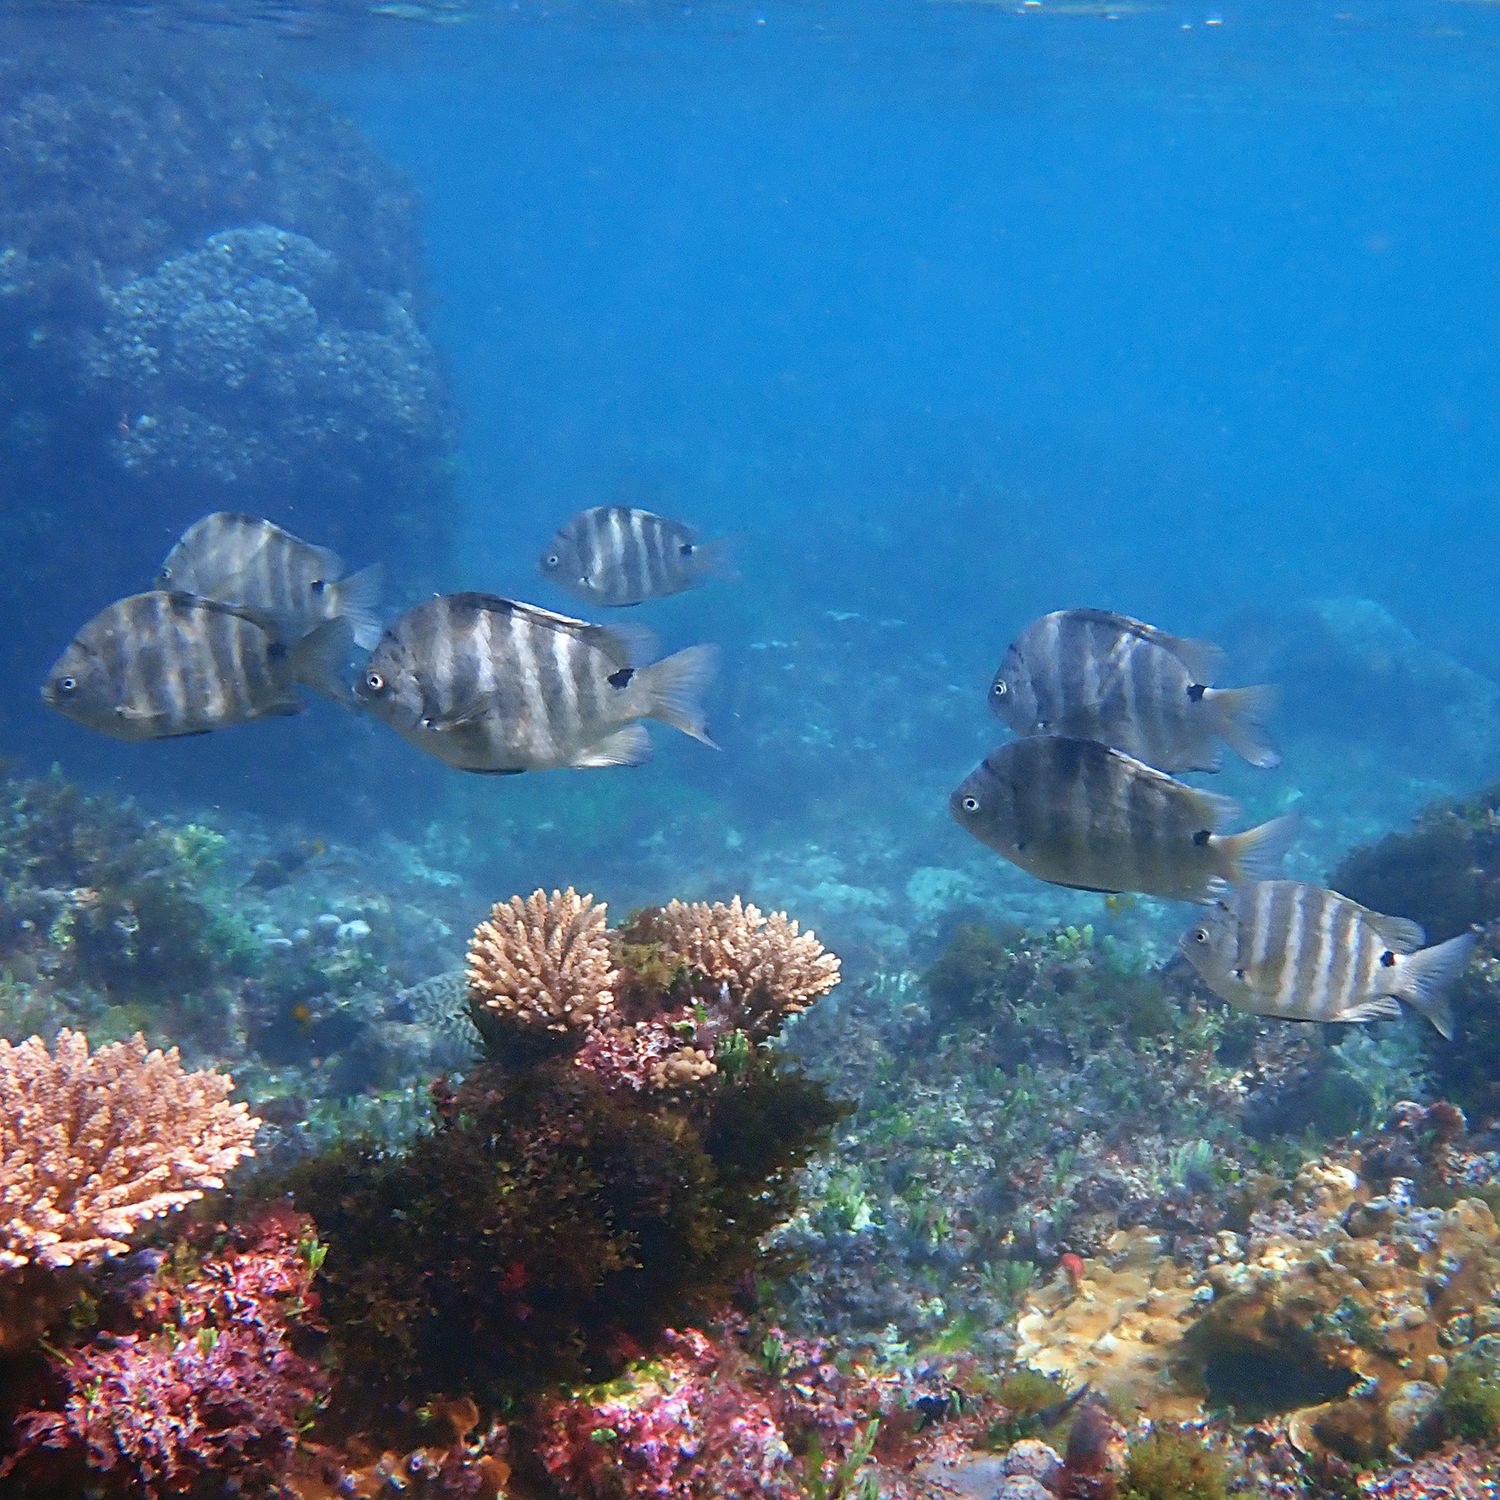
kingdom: Animalia
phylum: Chordata
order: Perciformes
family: Pomacentridae
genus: Abudefduf
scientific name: Abudefduf sordidus
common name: Blackspot sergeant
